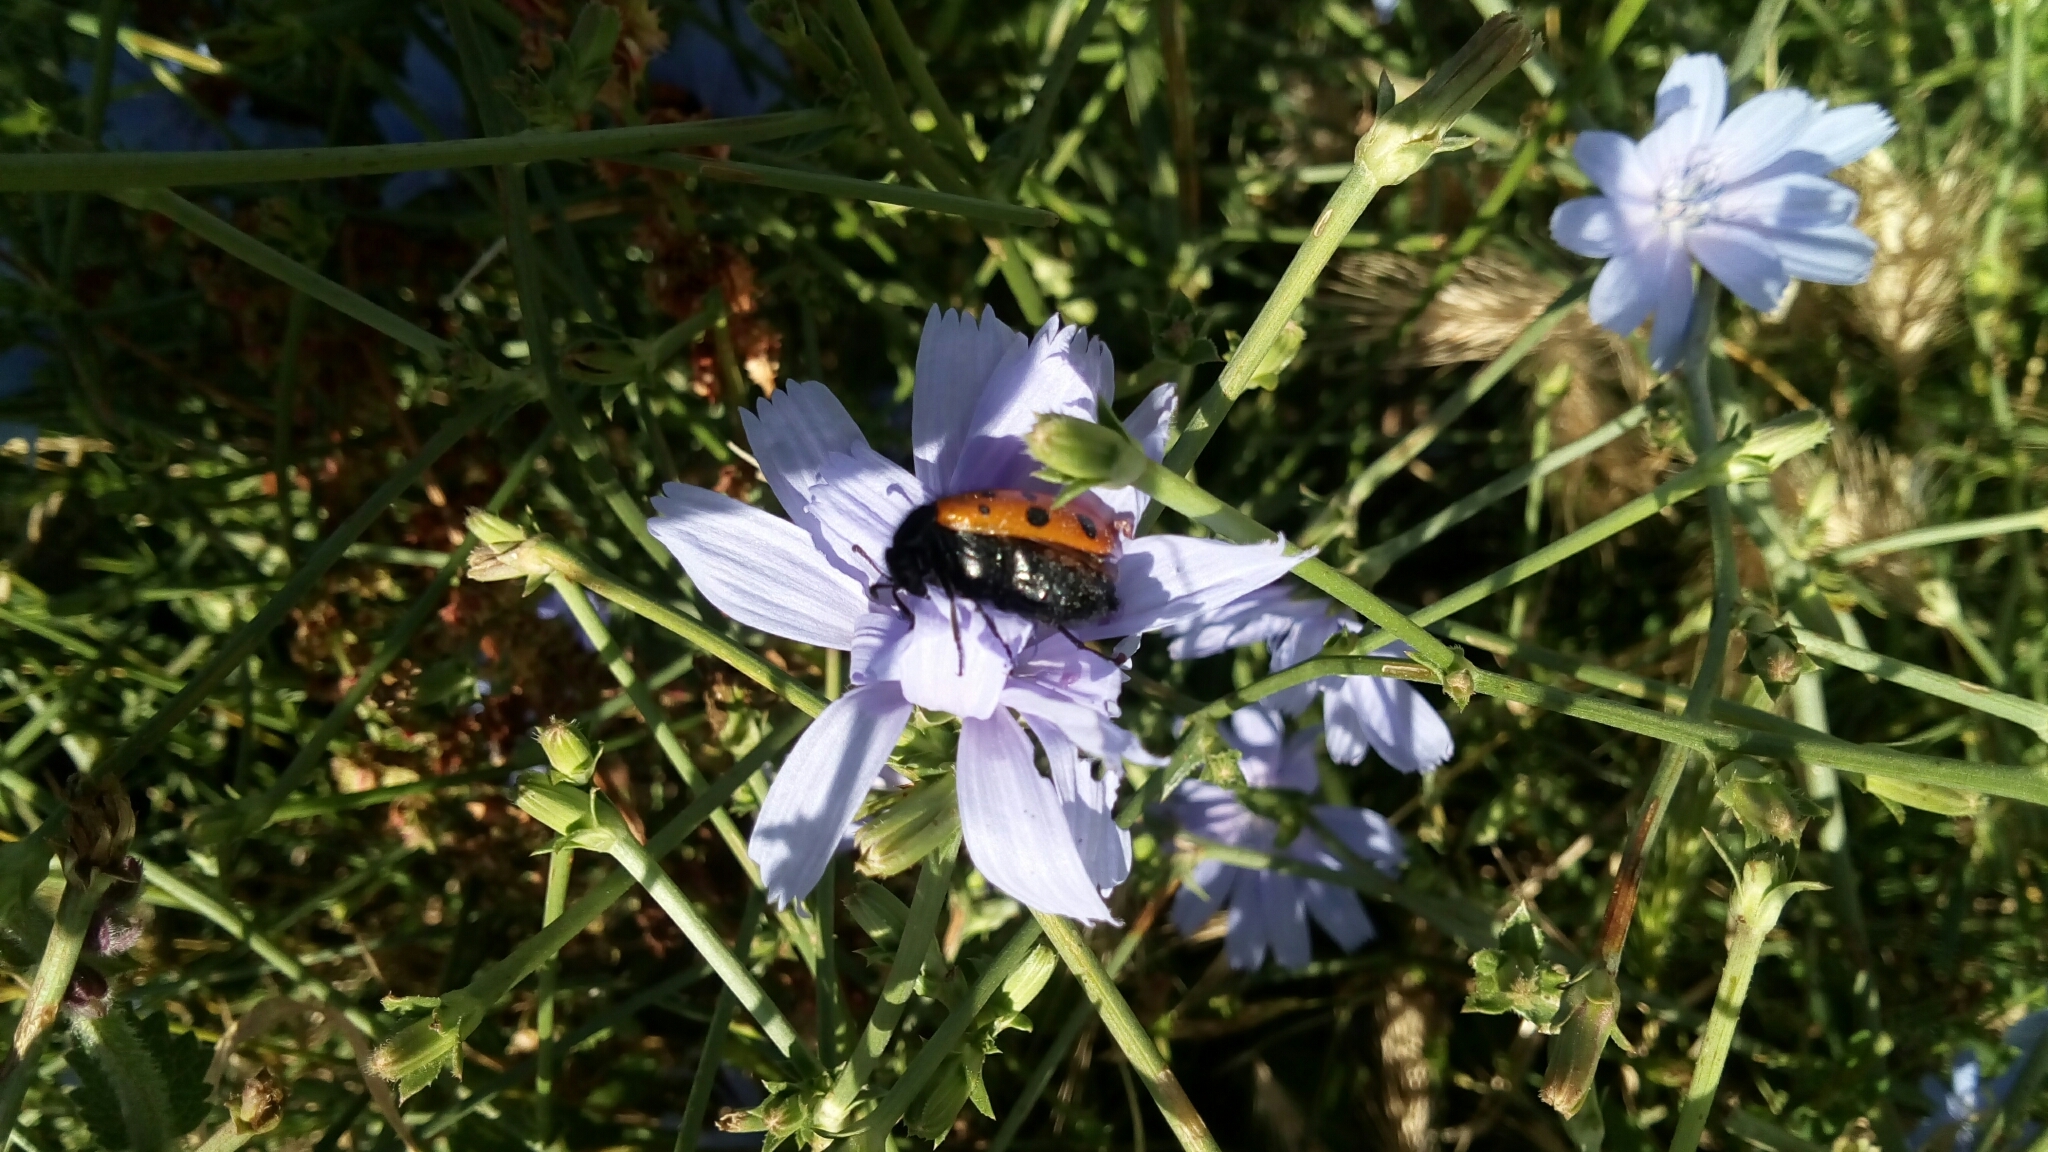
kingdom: Animalia
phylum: Arthropoda
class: Insecta
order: Coleoptera
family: Meloidae
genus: Mylabris
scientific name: Mylabris quadripunctata
